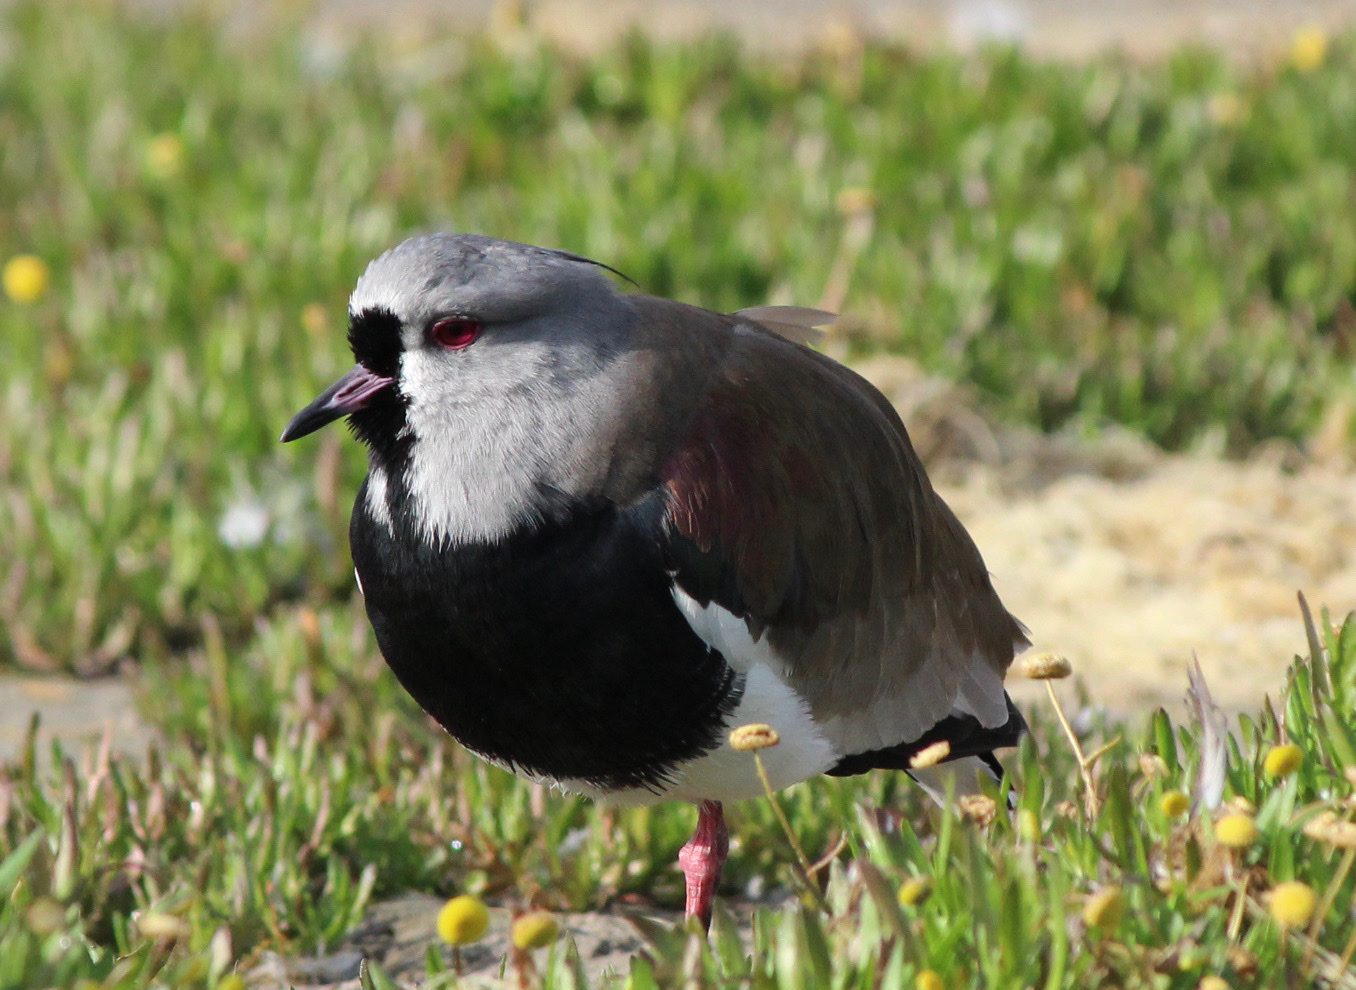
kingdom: Animalia
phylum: Chordata
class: Aves
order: Charadriiformes
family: Charadriidae
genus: Vanellus
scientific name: Vanellus chilensis
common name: Southern lapwing
